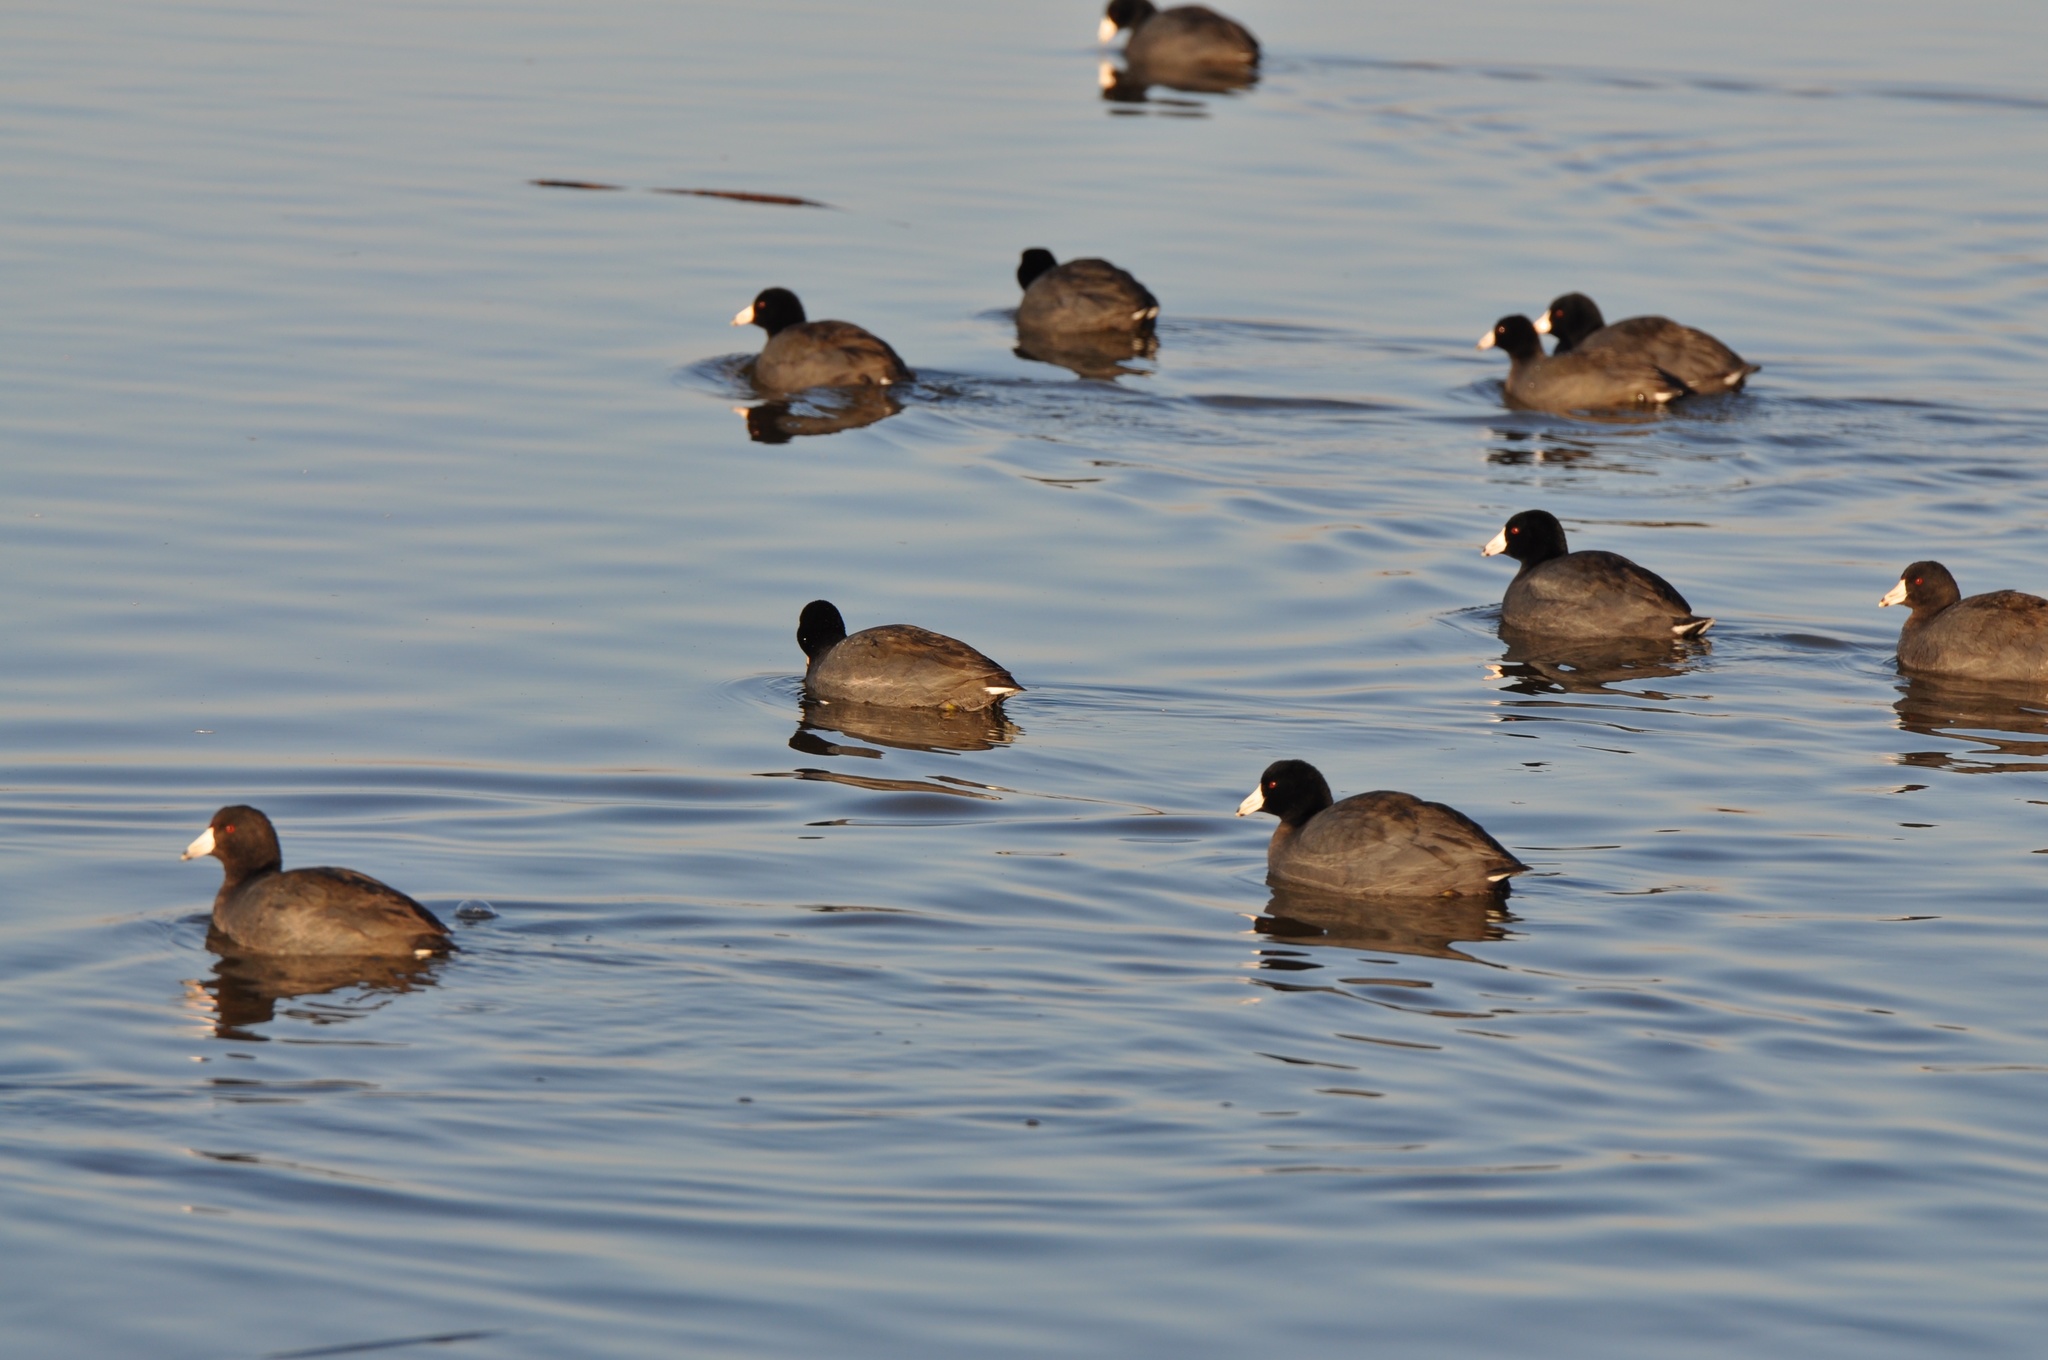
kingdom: Animalia
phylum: Chordata
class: Aves
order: Gruiformes
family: Rallidae
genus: Fulica
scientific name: Fulica americana
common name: American coot
